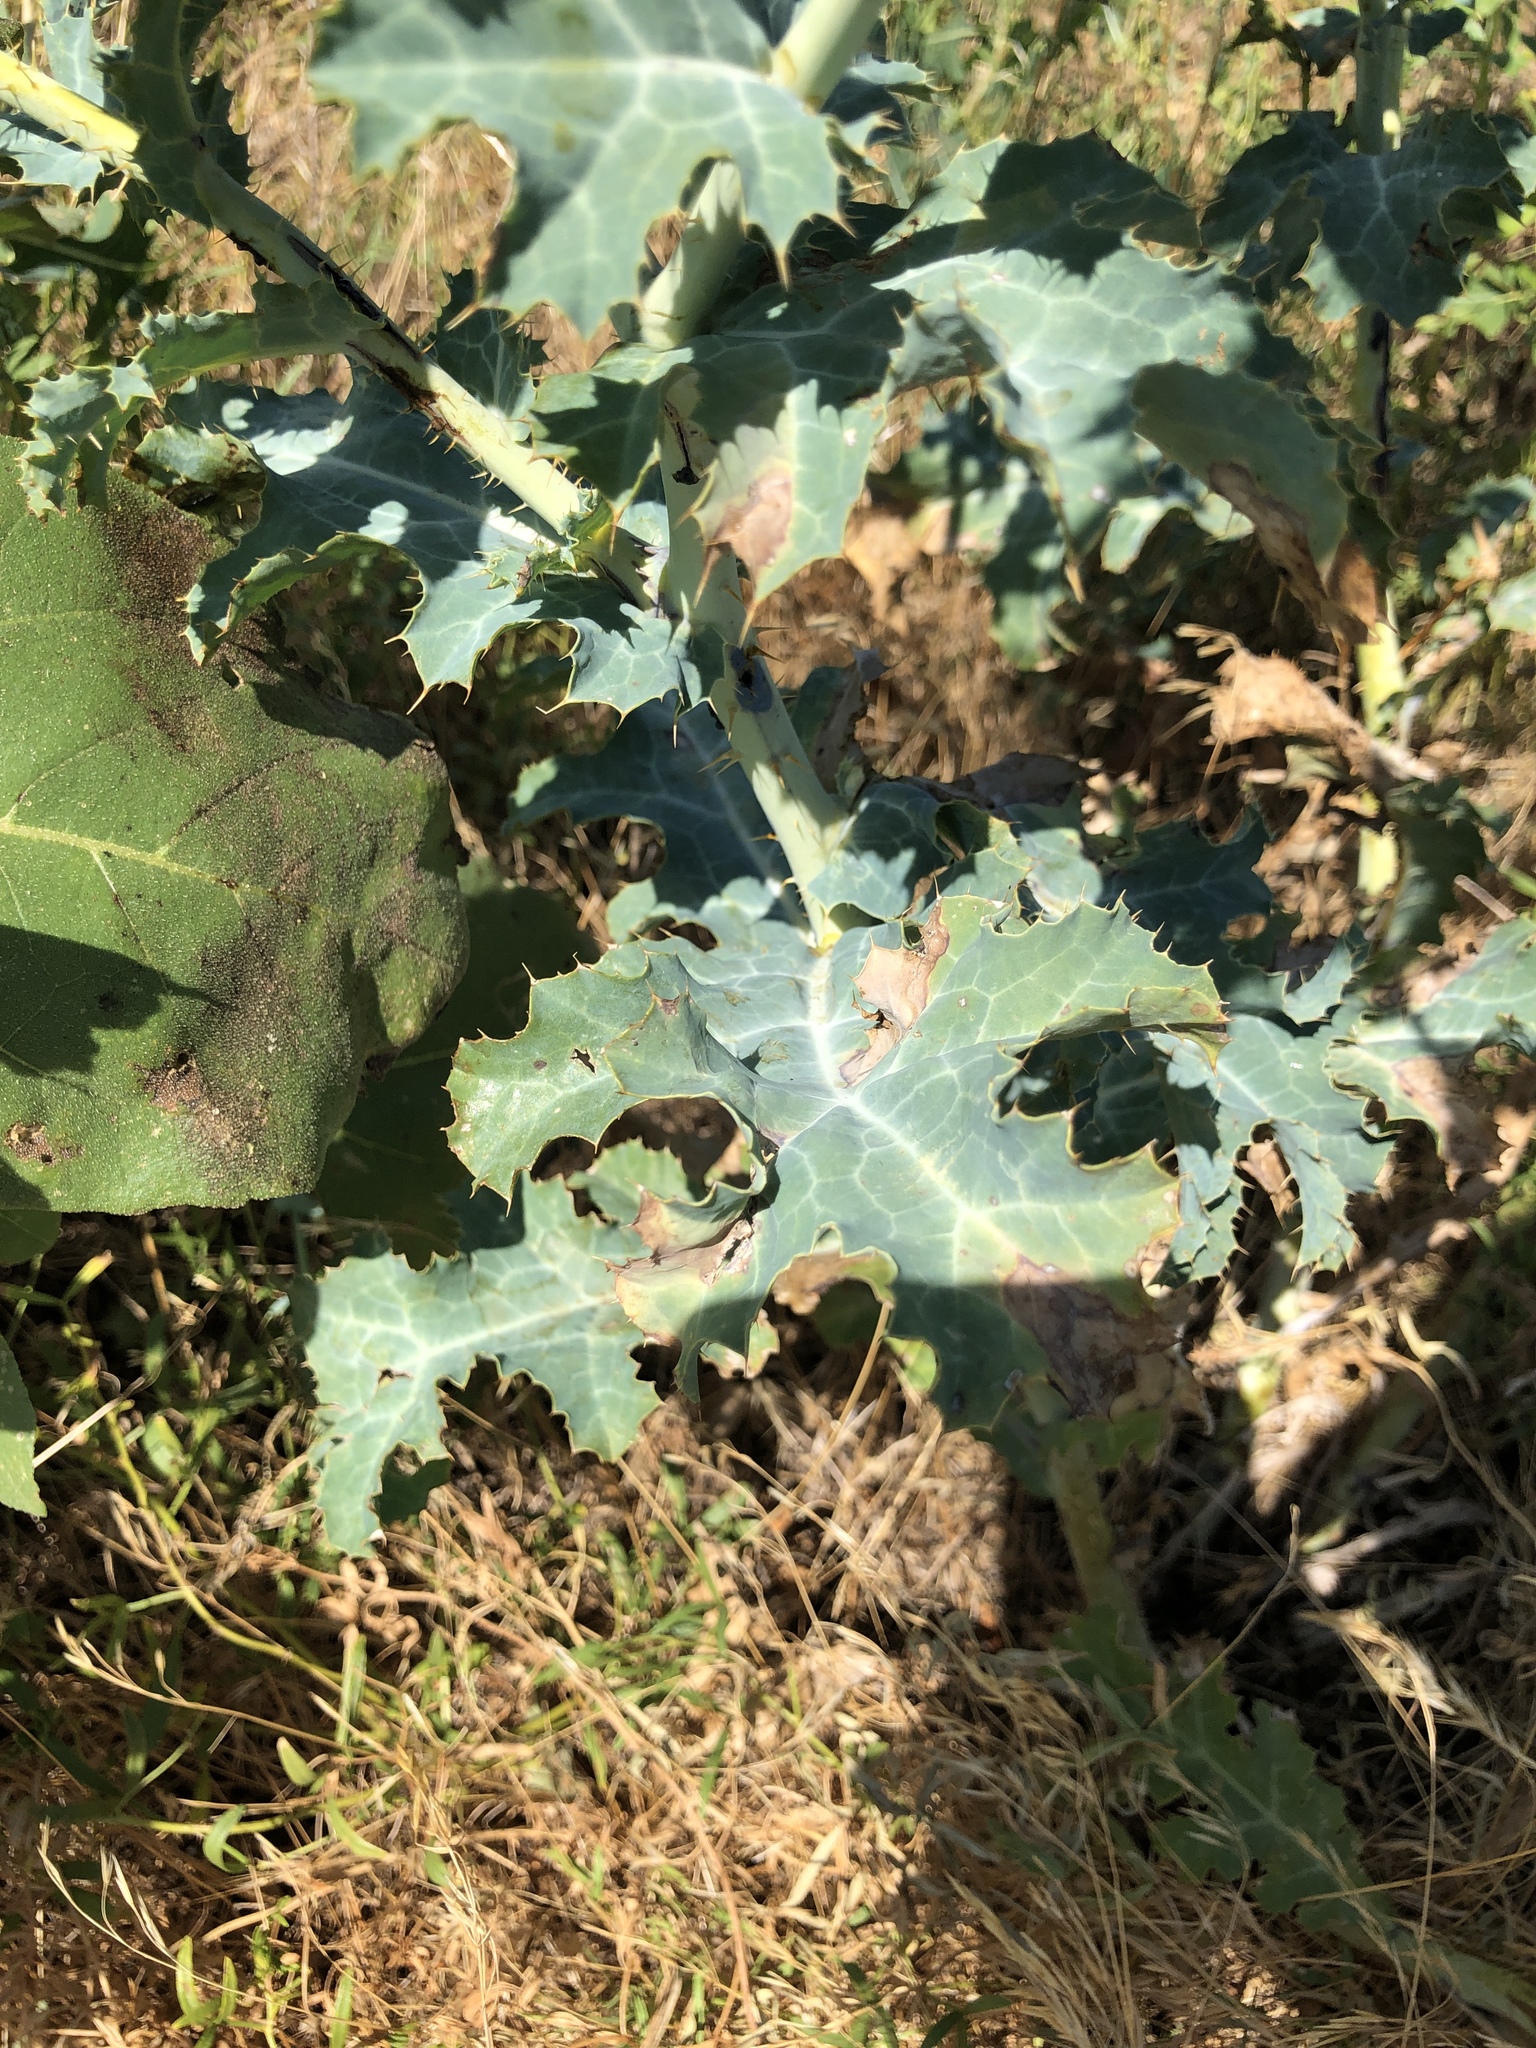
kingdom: Plantae
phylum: Tracheophyta
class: Magnoliopsida
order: Ranunculales
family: Papaveraceae
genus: Argemone
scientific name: Argemone polyanthemos
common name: Plains prickly-poppy
